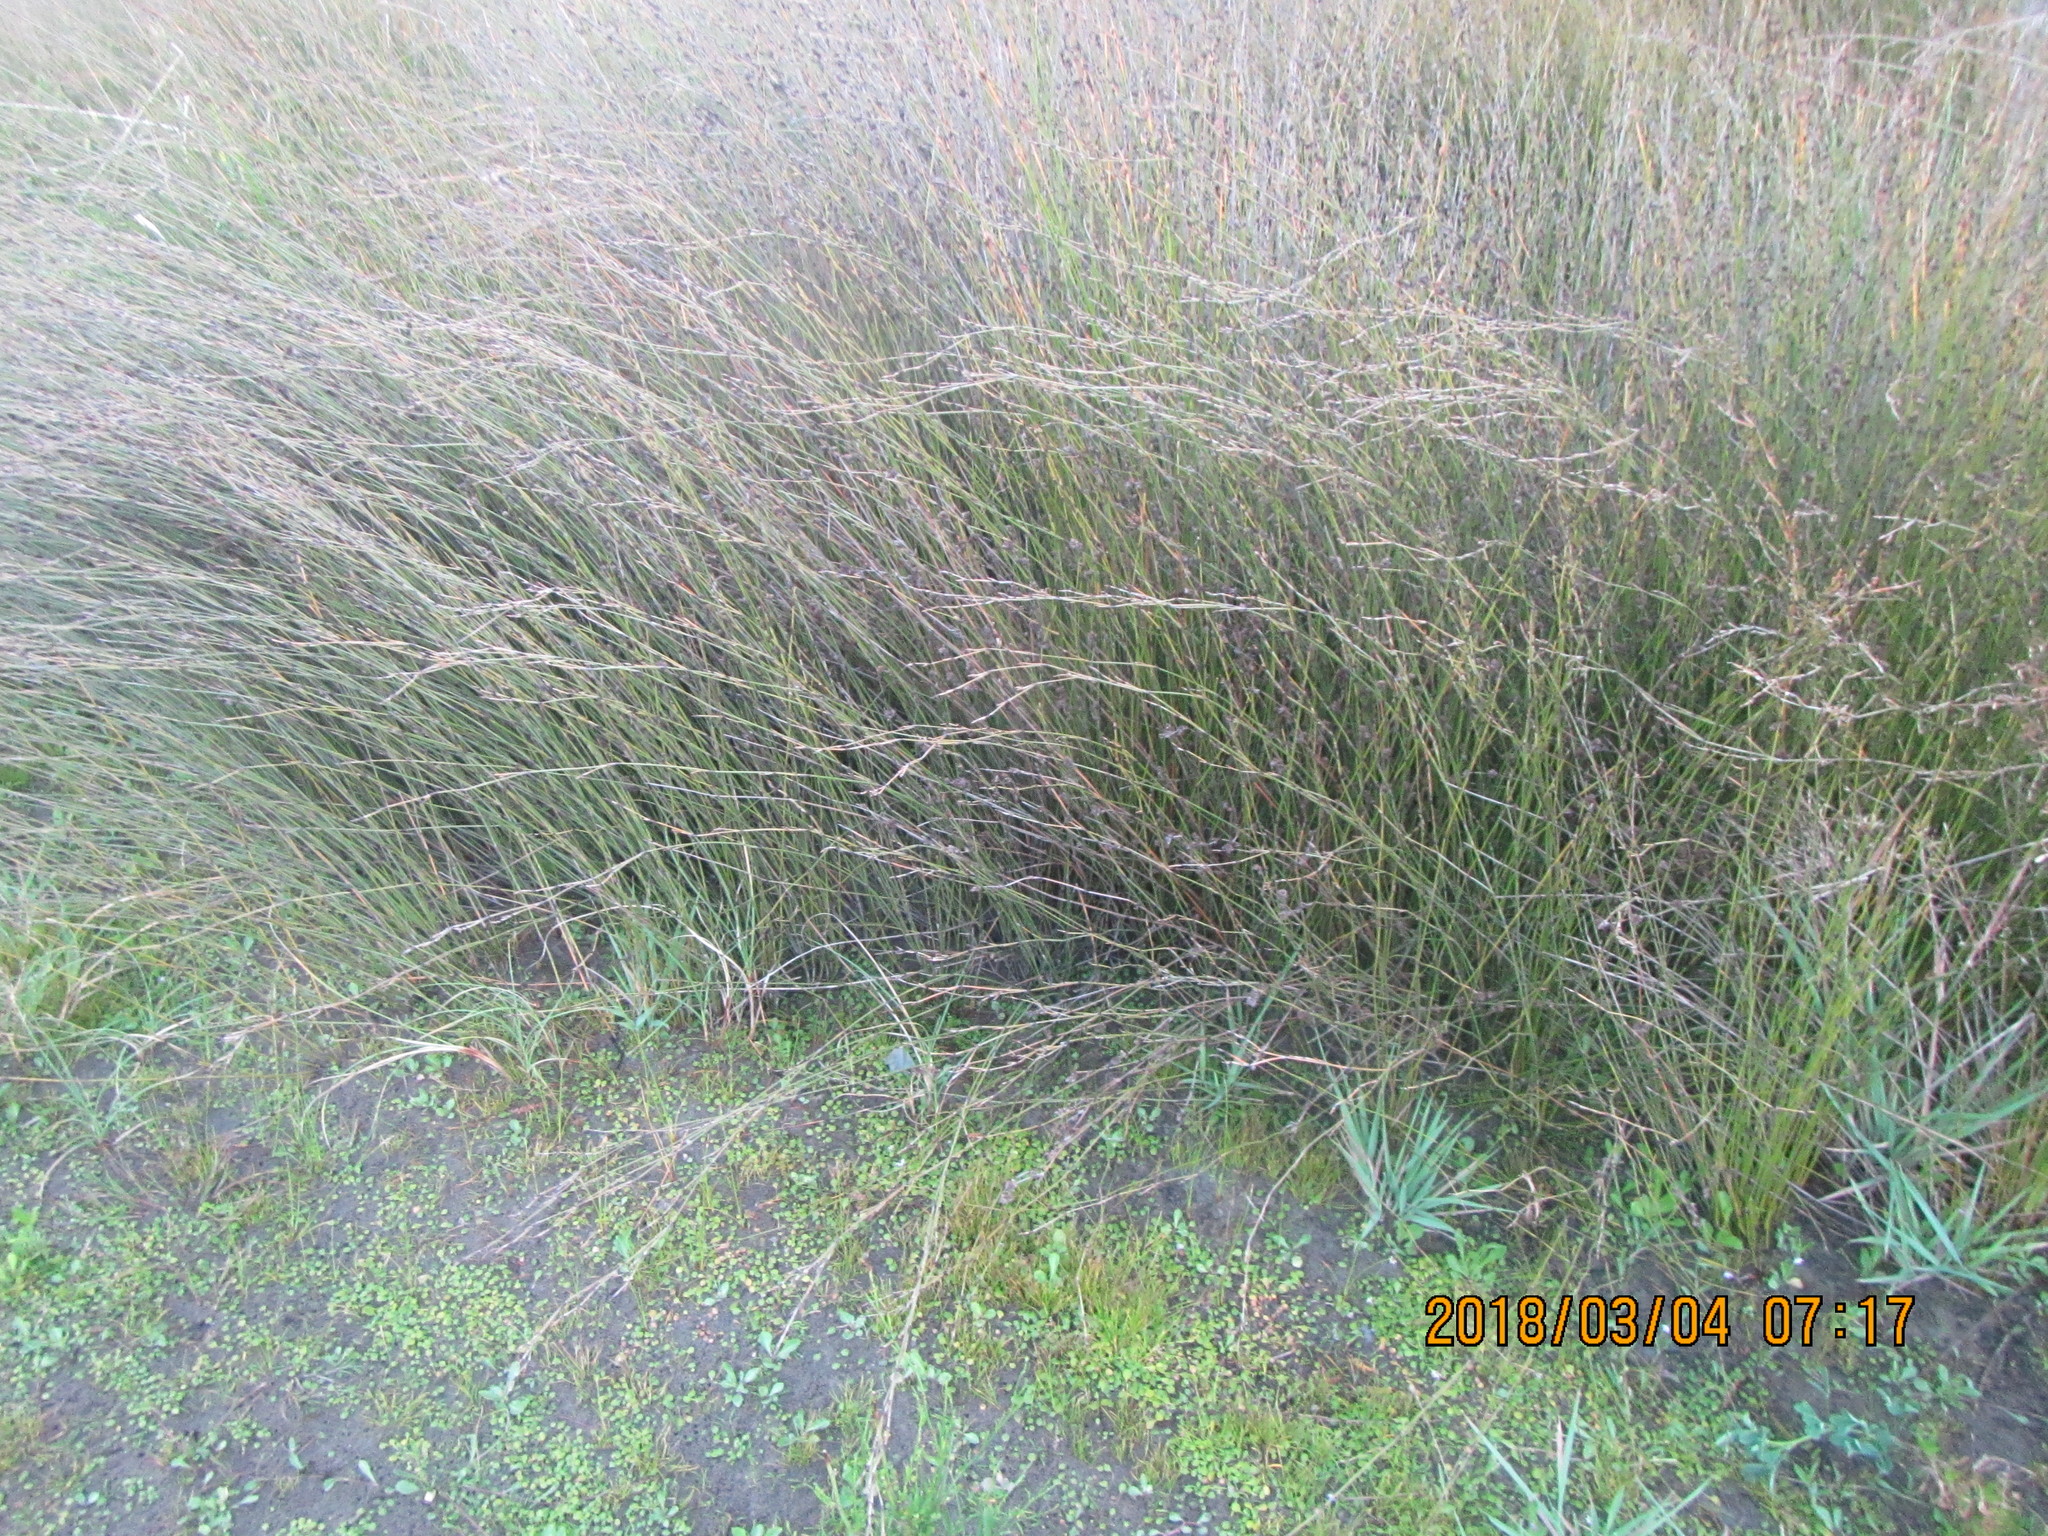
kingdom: Plantae
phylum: Tracheophyta
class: Liliopsida
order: Poales
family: Restionaceae
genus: Apodasmia
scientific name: Apodasmia similis
